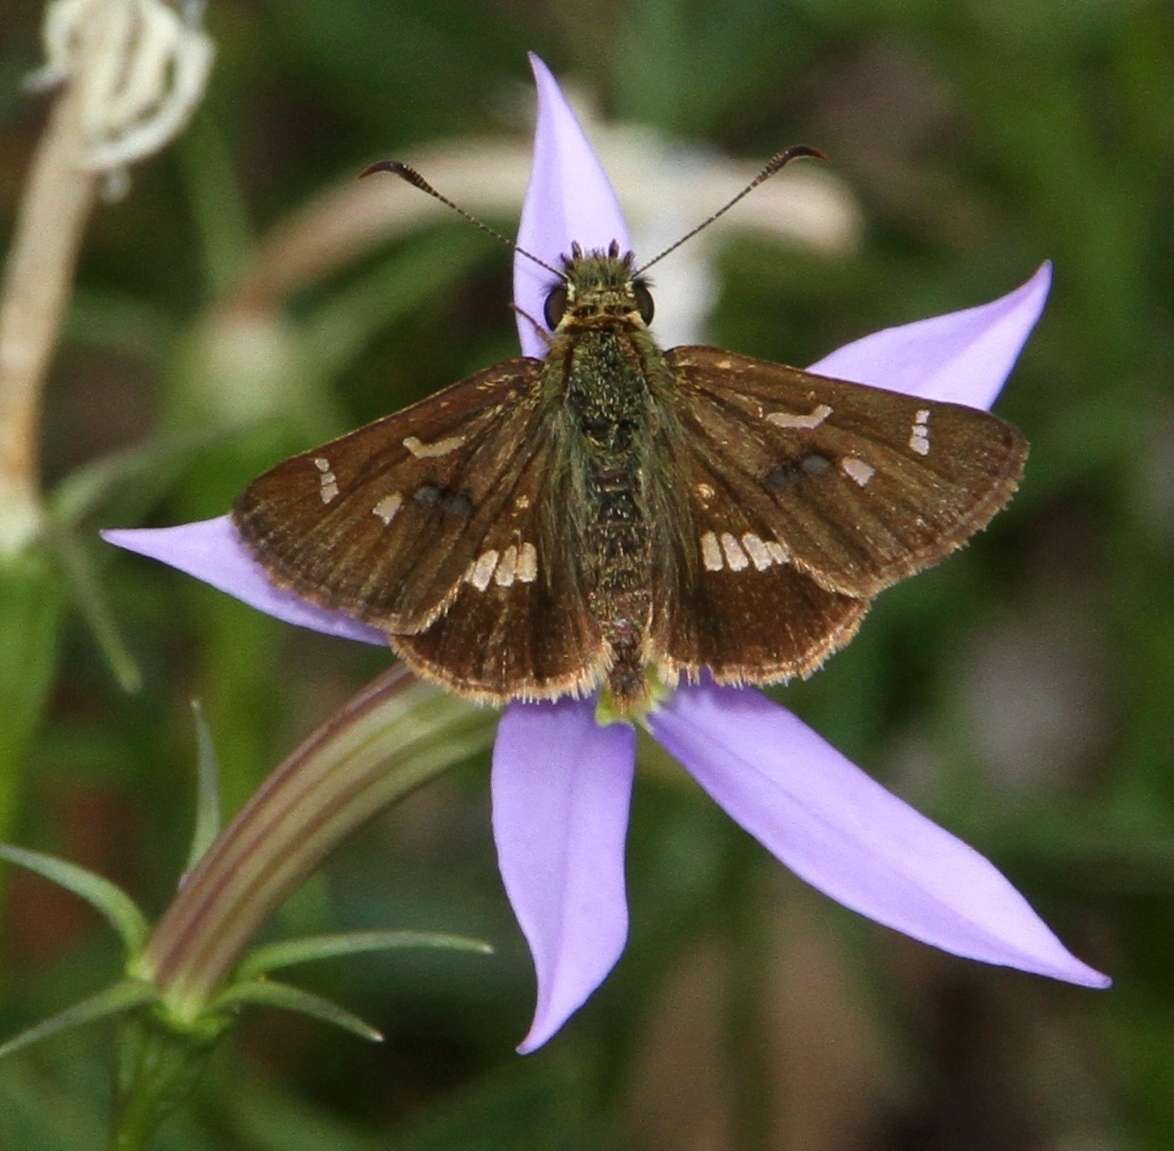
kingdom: Animalia
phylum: Arthropoda
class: Insecta
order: Lepidoptera
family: Hesperiidae
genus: Dispar
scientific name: Dispar compacta
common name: Barred skipper
